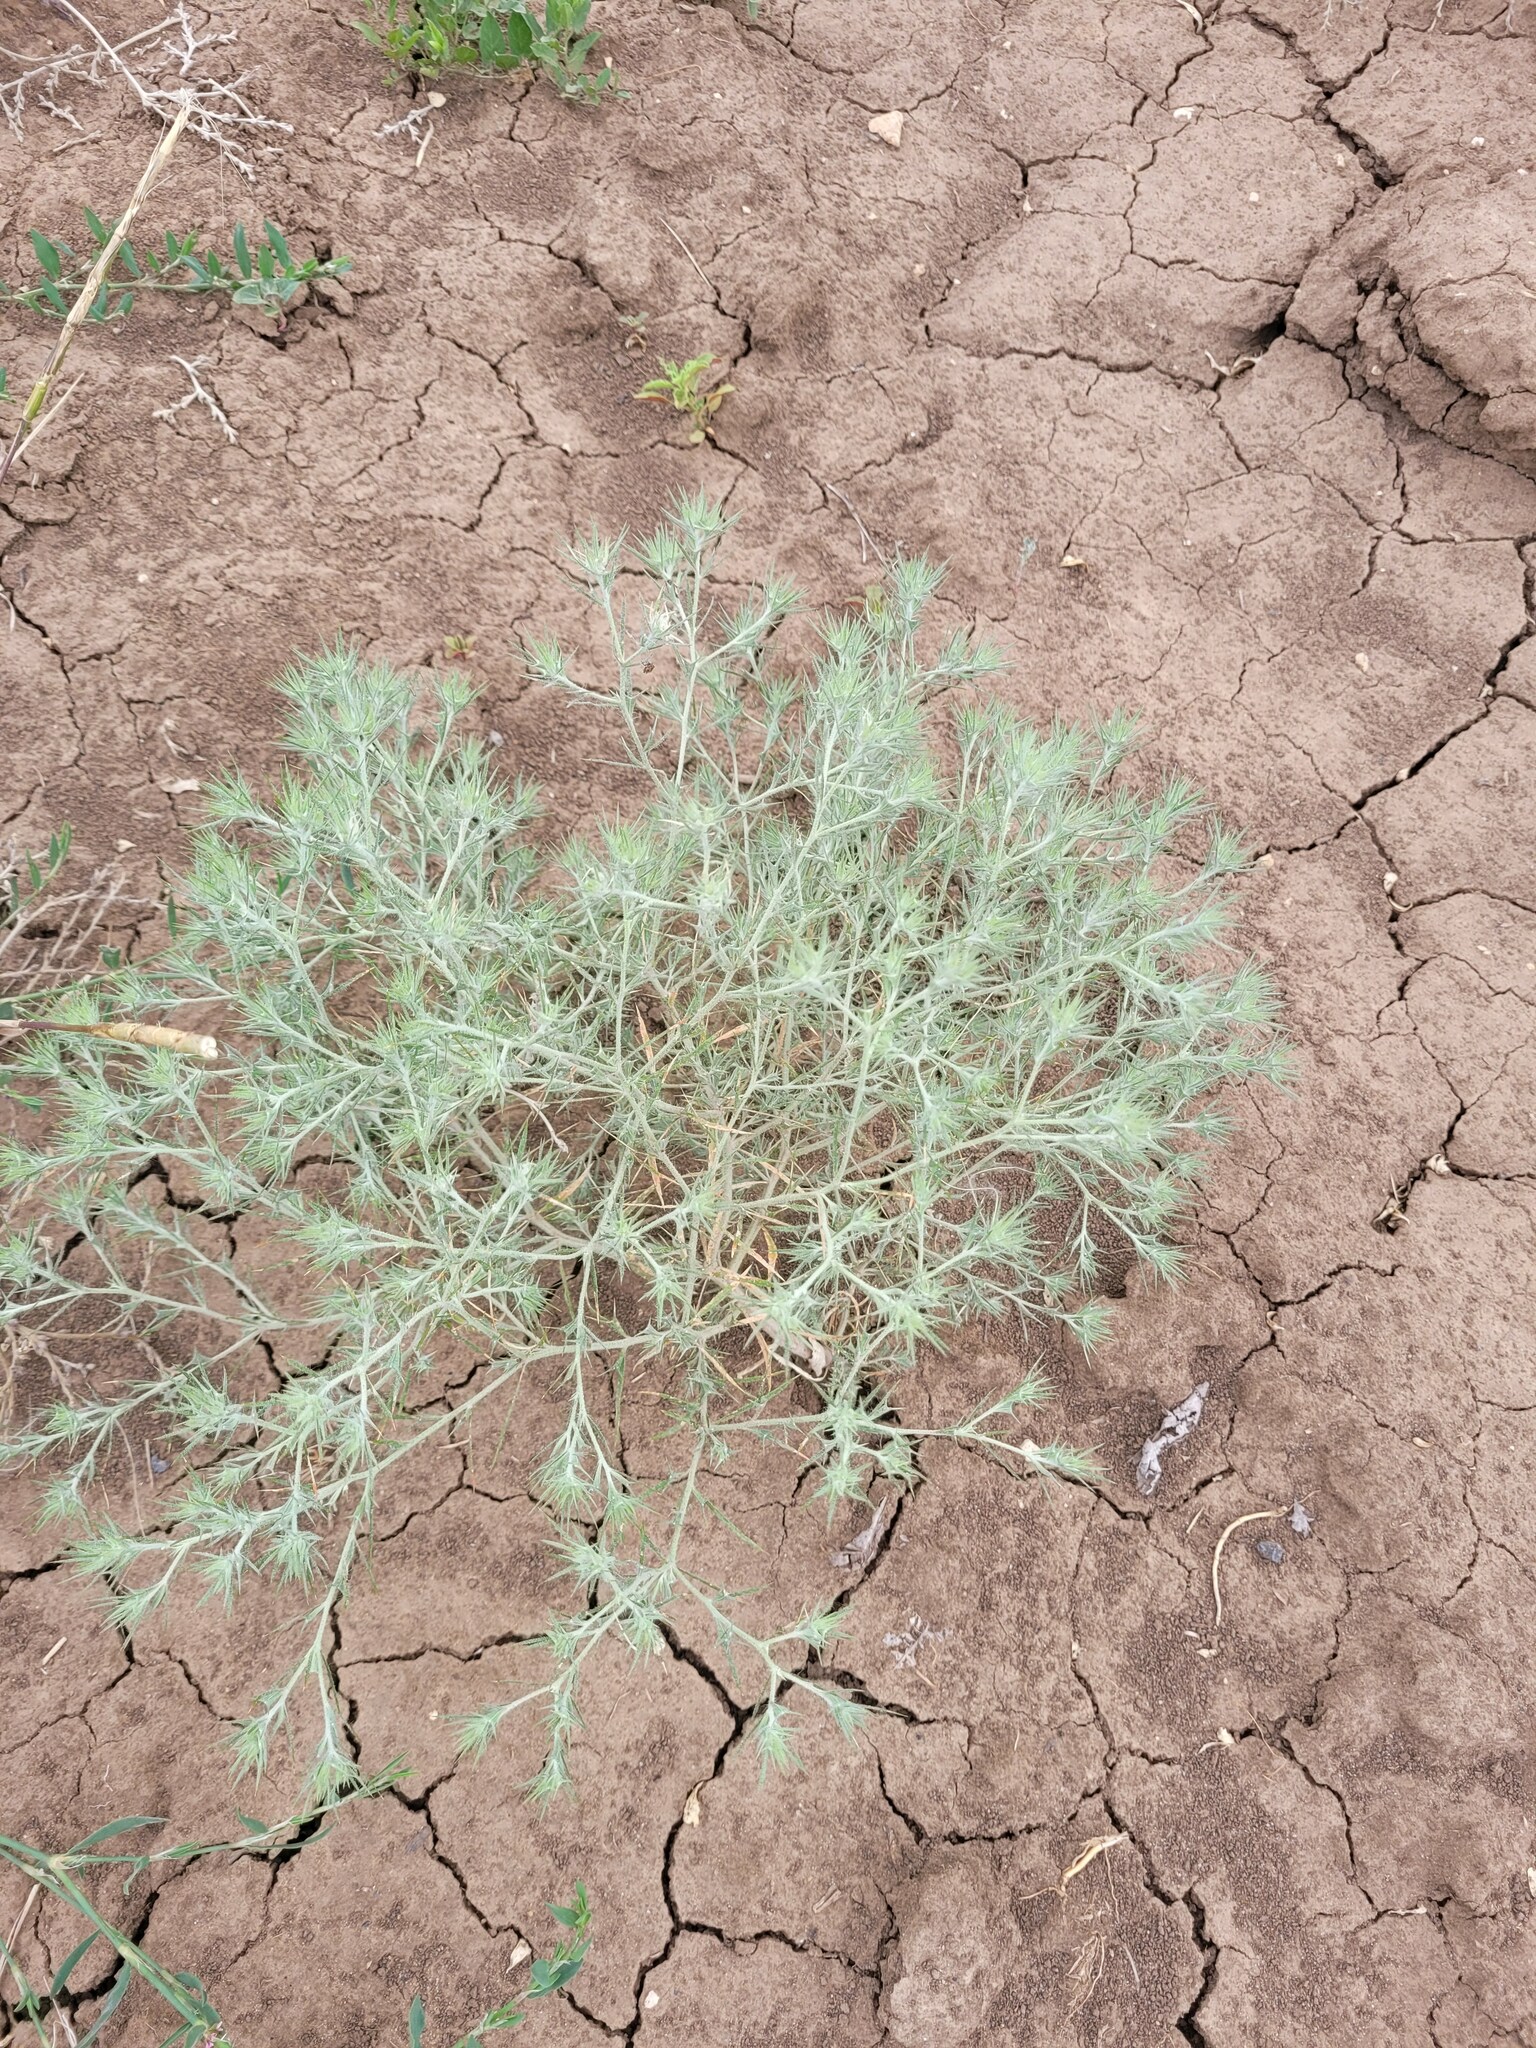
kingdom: Plantae
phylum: Tracheophyta
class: Magnoliopsida
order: Caryophyllales
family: Amaranthaceae
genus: Ceratocarpus
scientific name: Ceratocarpus arenarius
